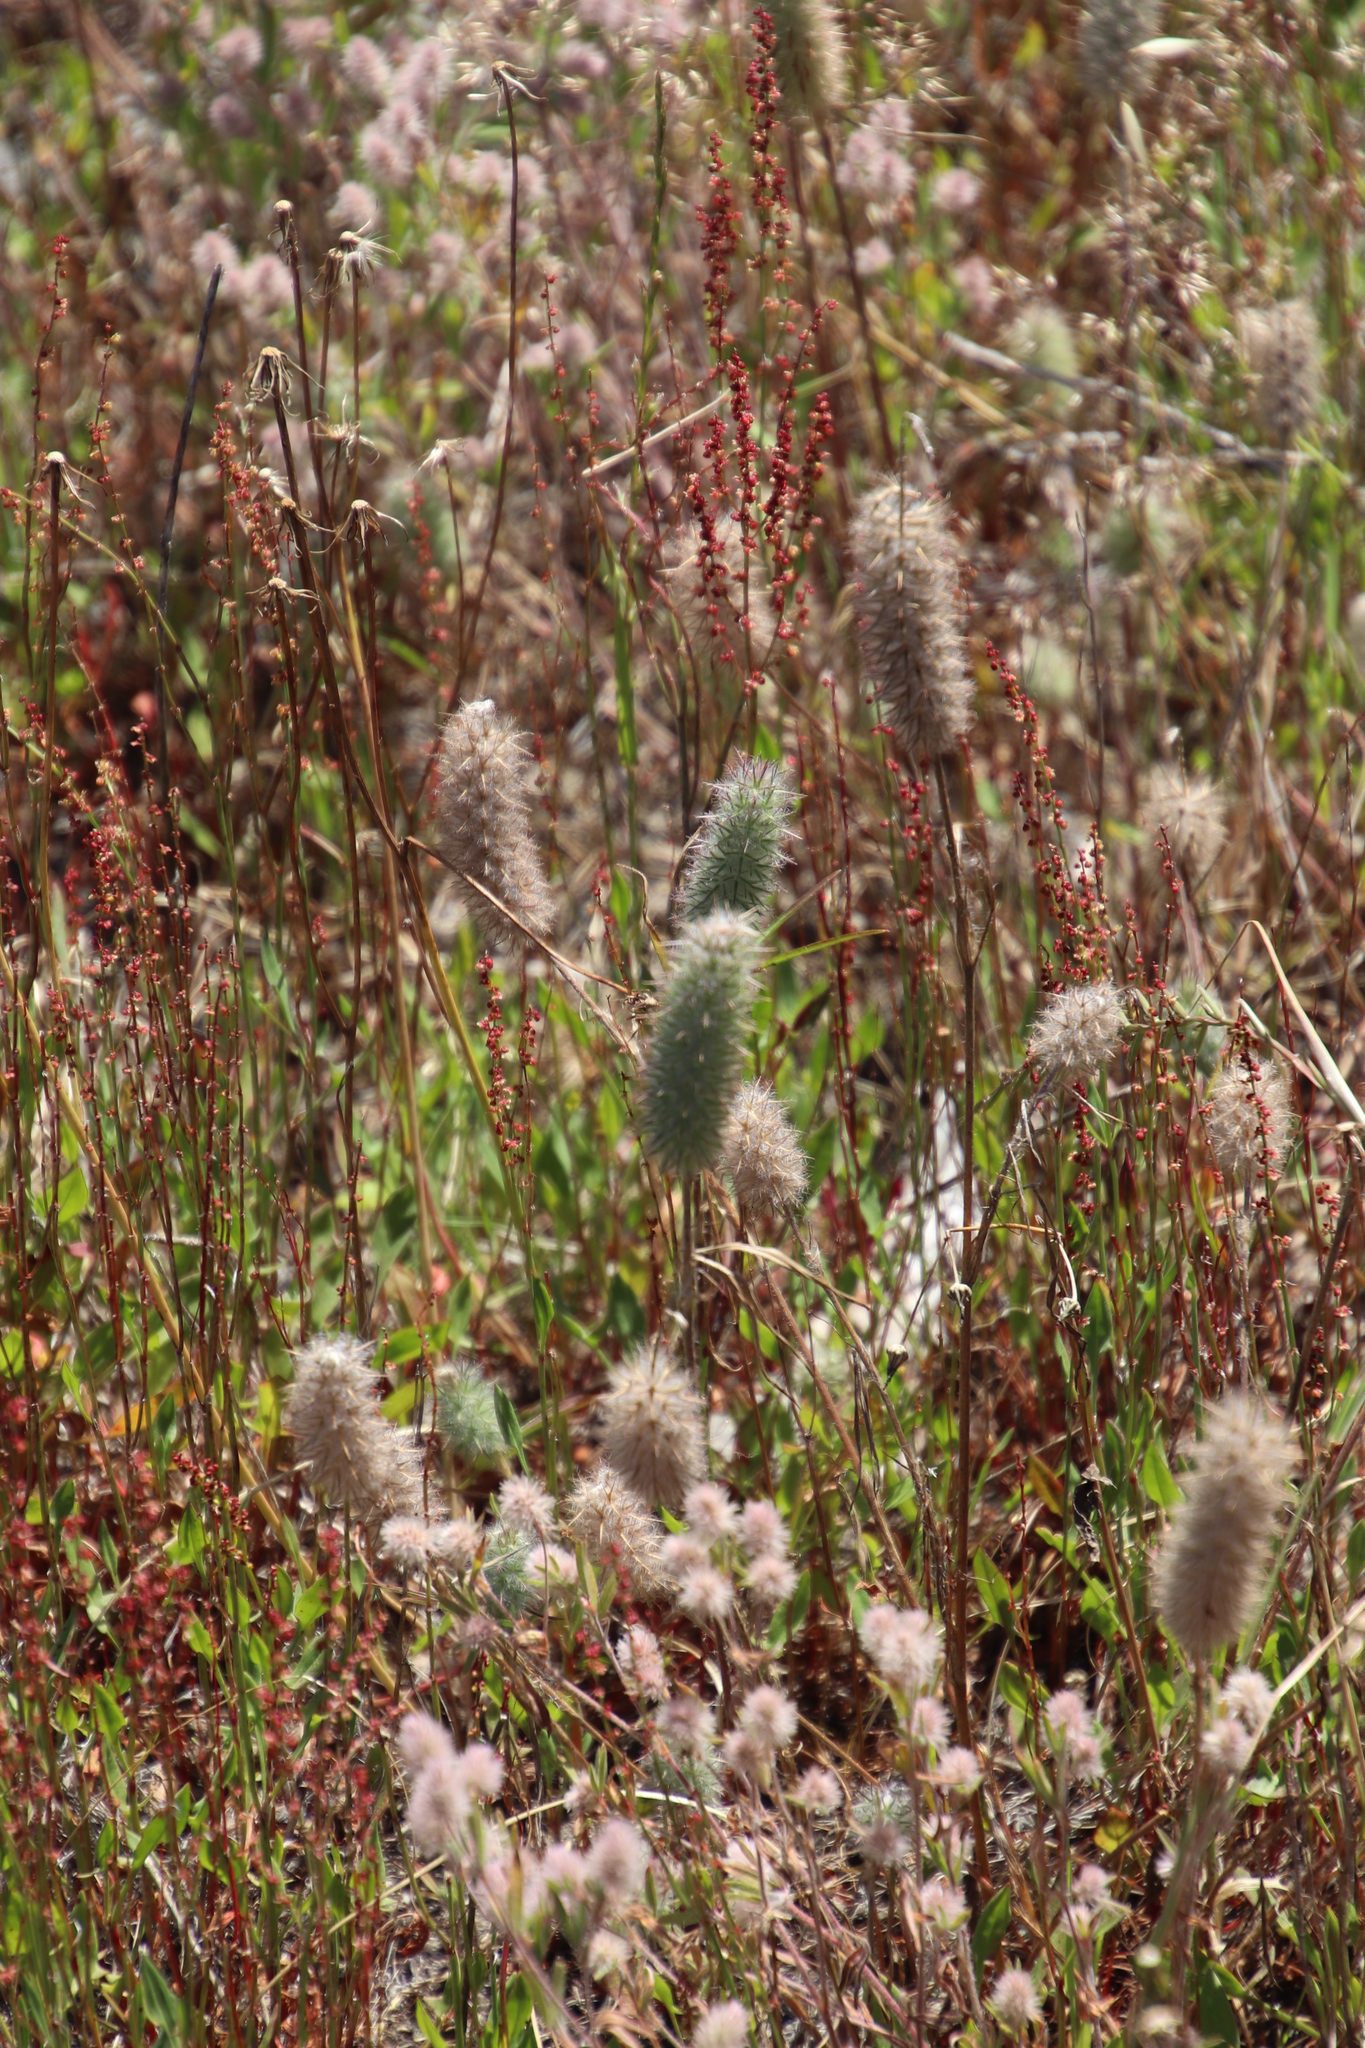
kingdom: Plantae
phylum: Tracheophyta
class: Magnoliopsida
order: Fabales
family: Fabaceae
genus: Trifolium
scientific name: Trifolium angustifolium
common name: Narrow clover
